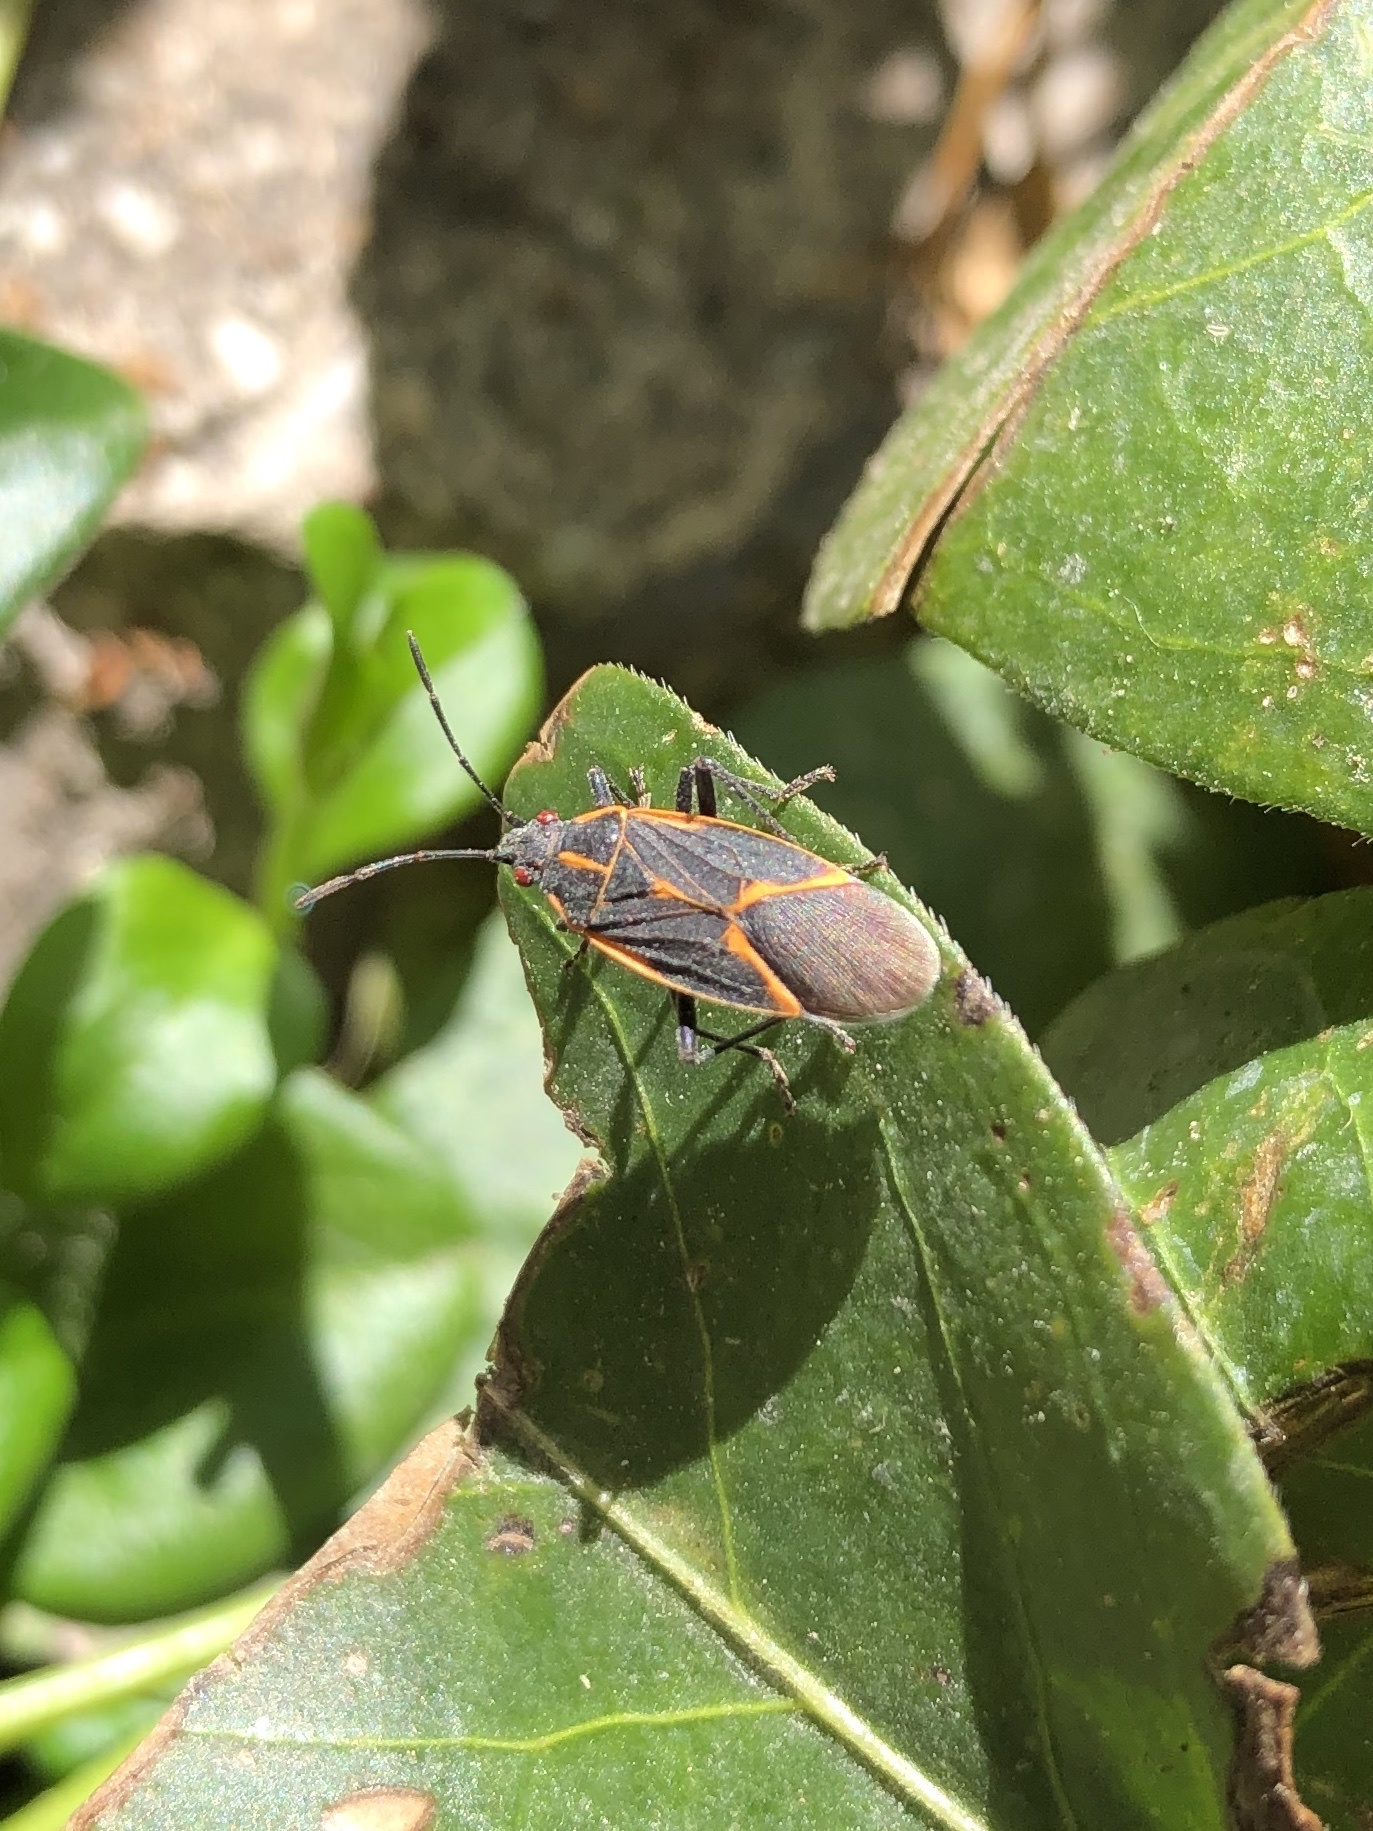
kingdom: Animalia
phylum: Arthropoda
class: Insecta
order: Hemiptera
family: Rhopalidae
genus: Boisea
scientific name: Boisea trivittata
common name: Boxelder bug
